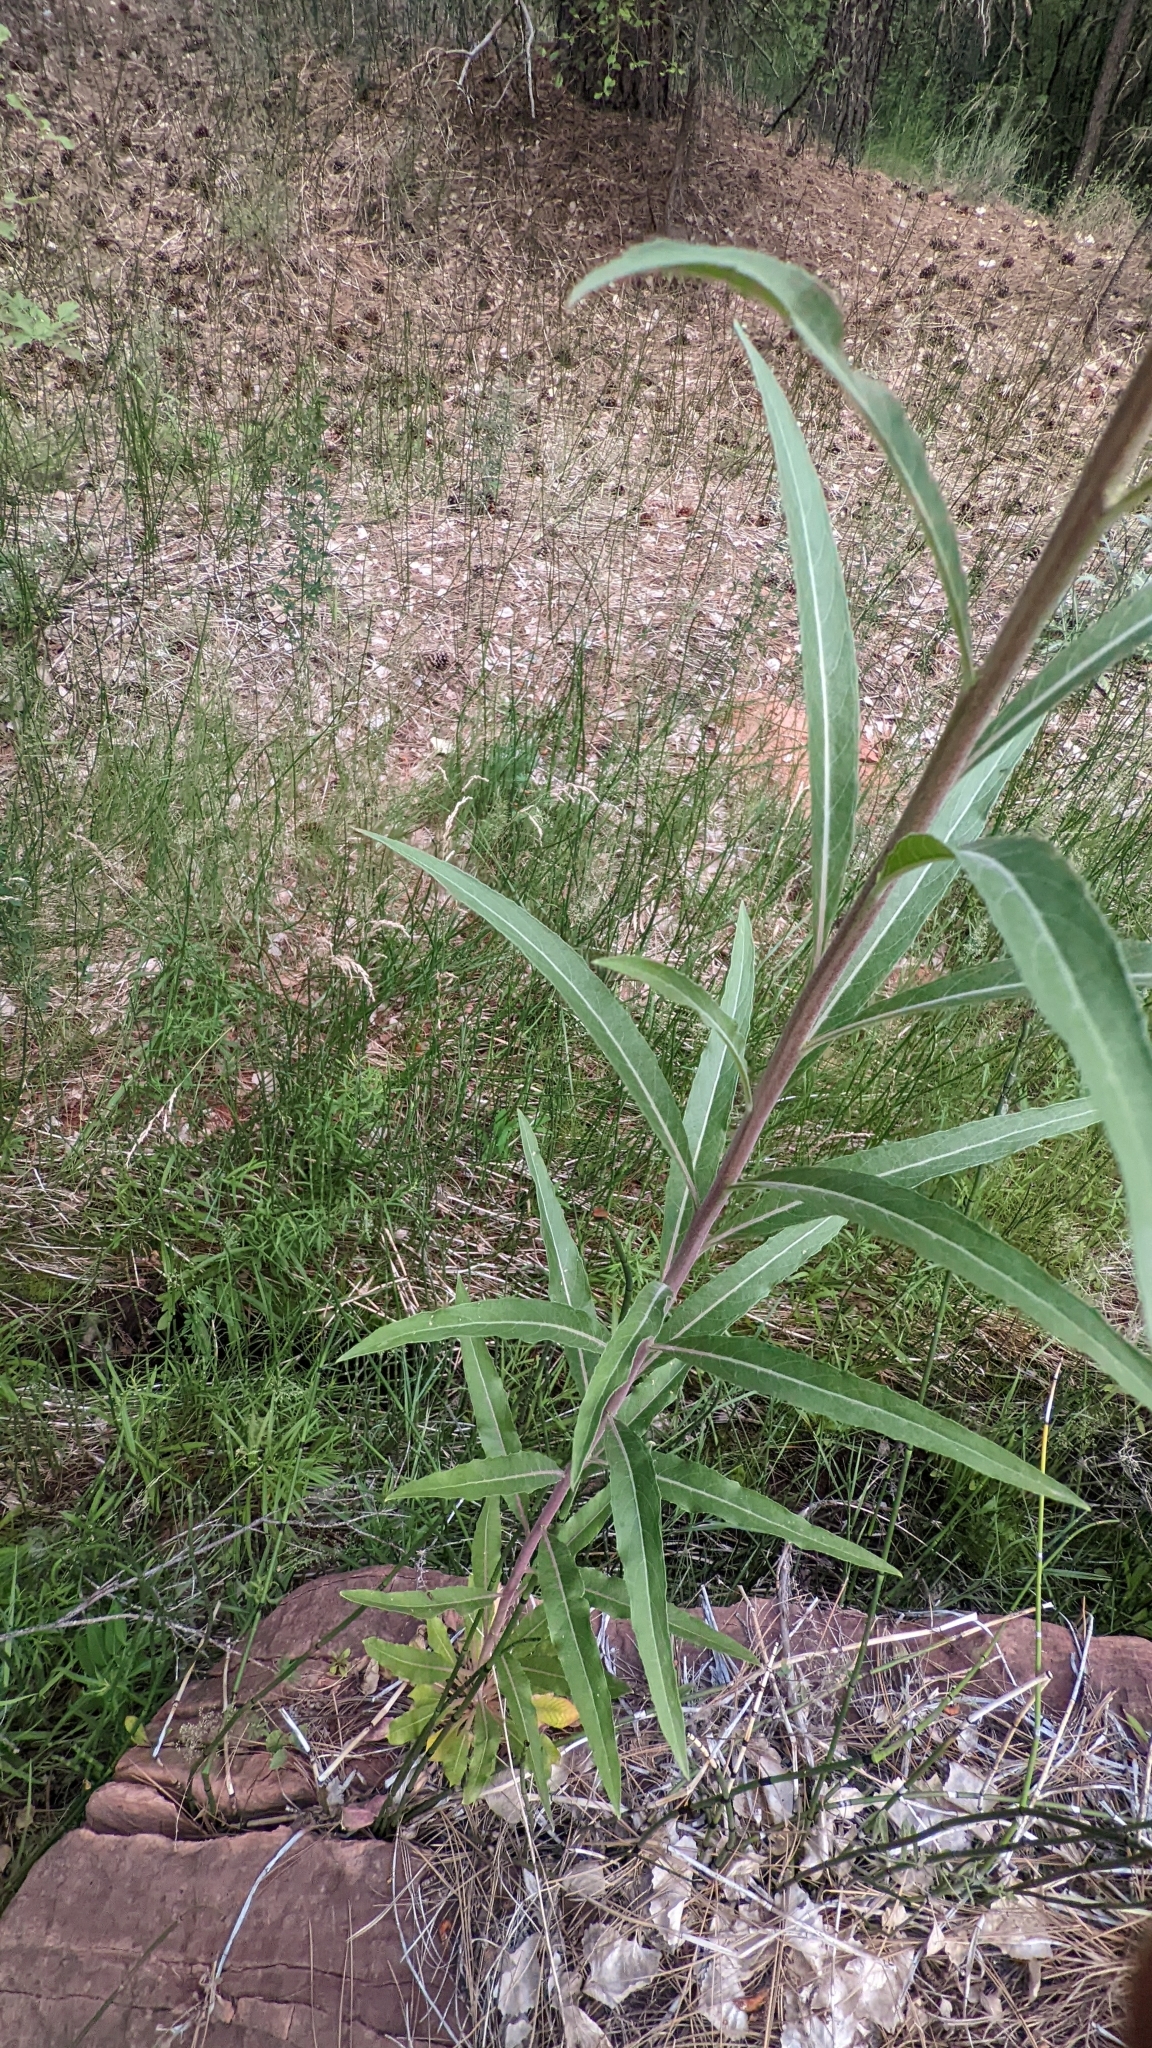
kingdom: Plantae
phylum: Tracheophyta
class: Magnoliopsida
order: Myrtales
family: Onagraceae
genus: Oenothera
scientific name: Oenothera longissima
